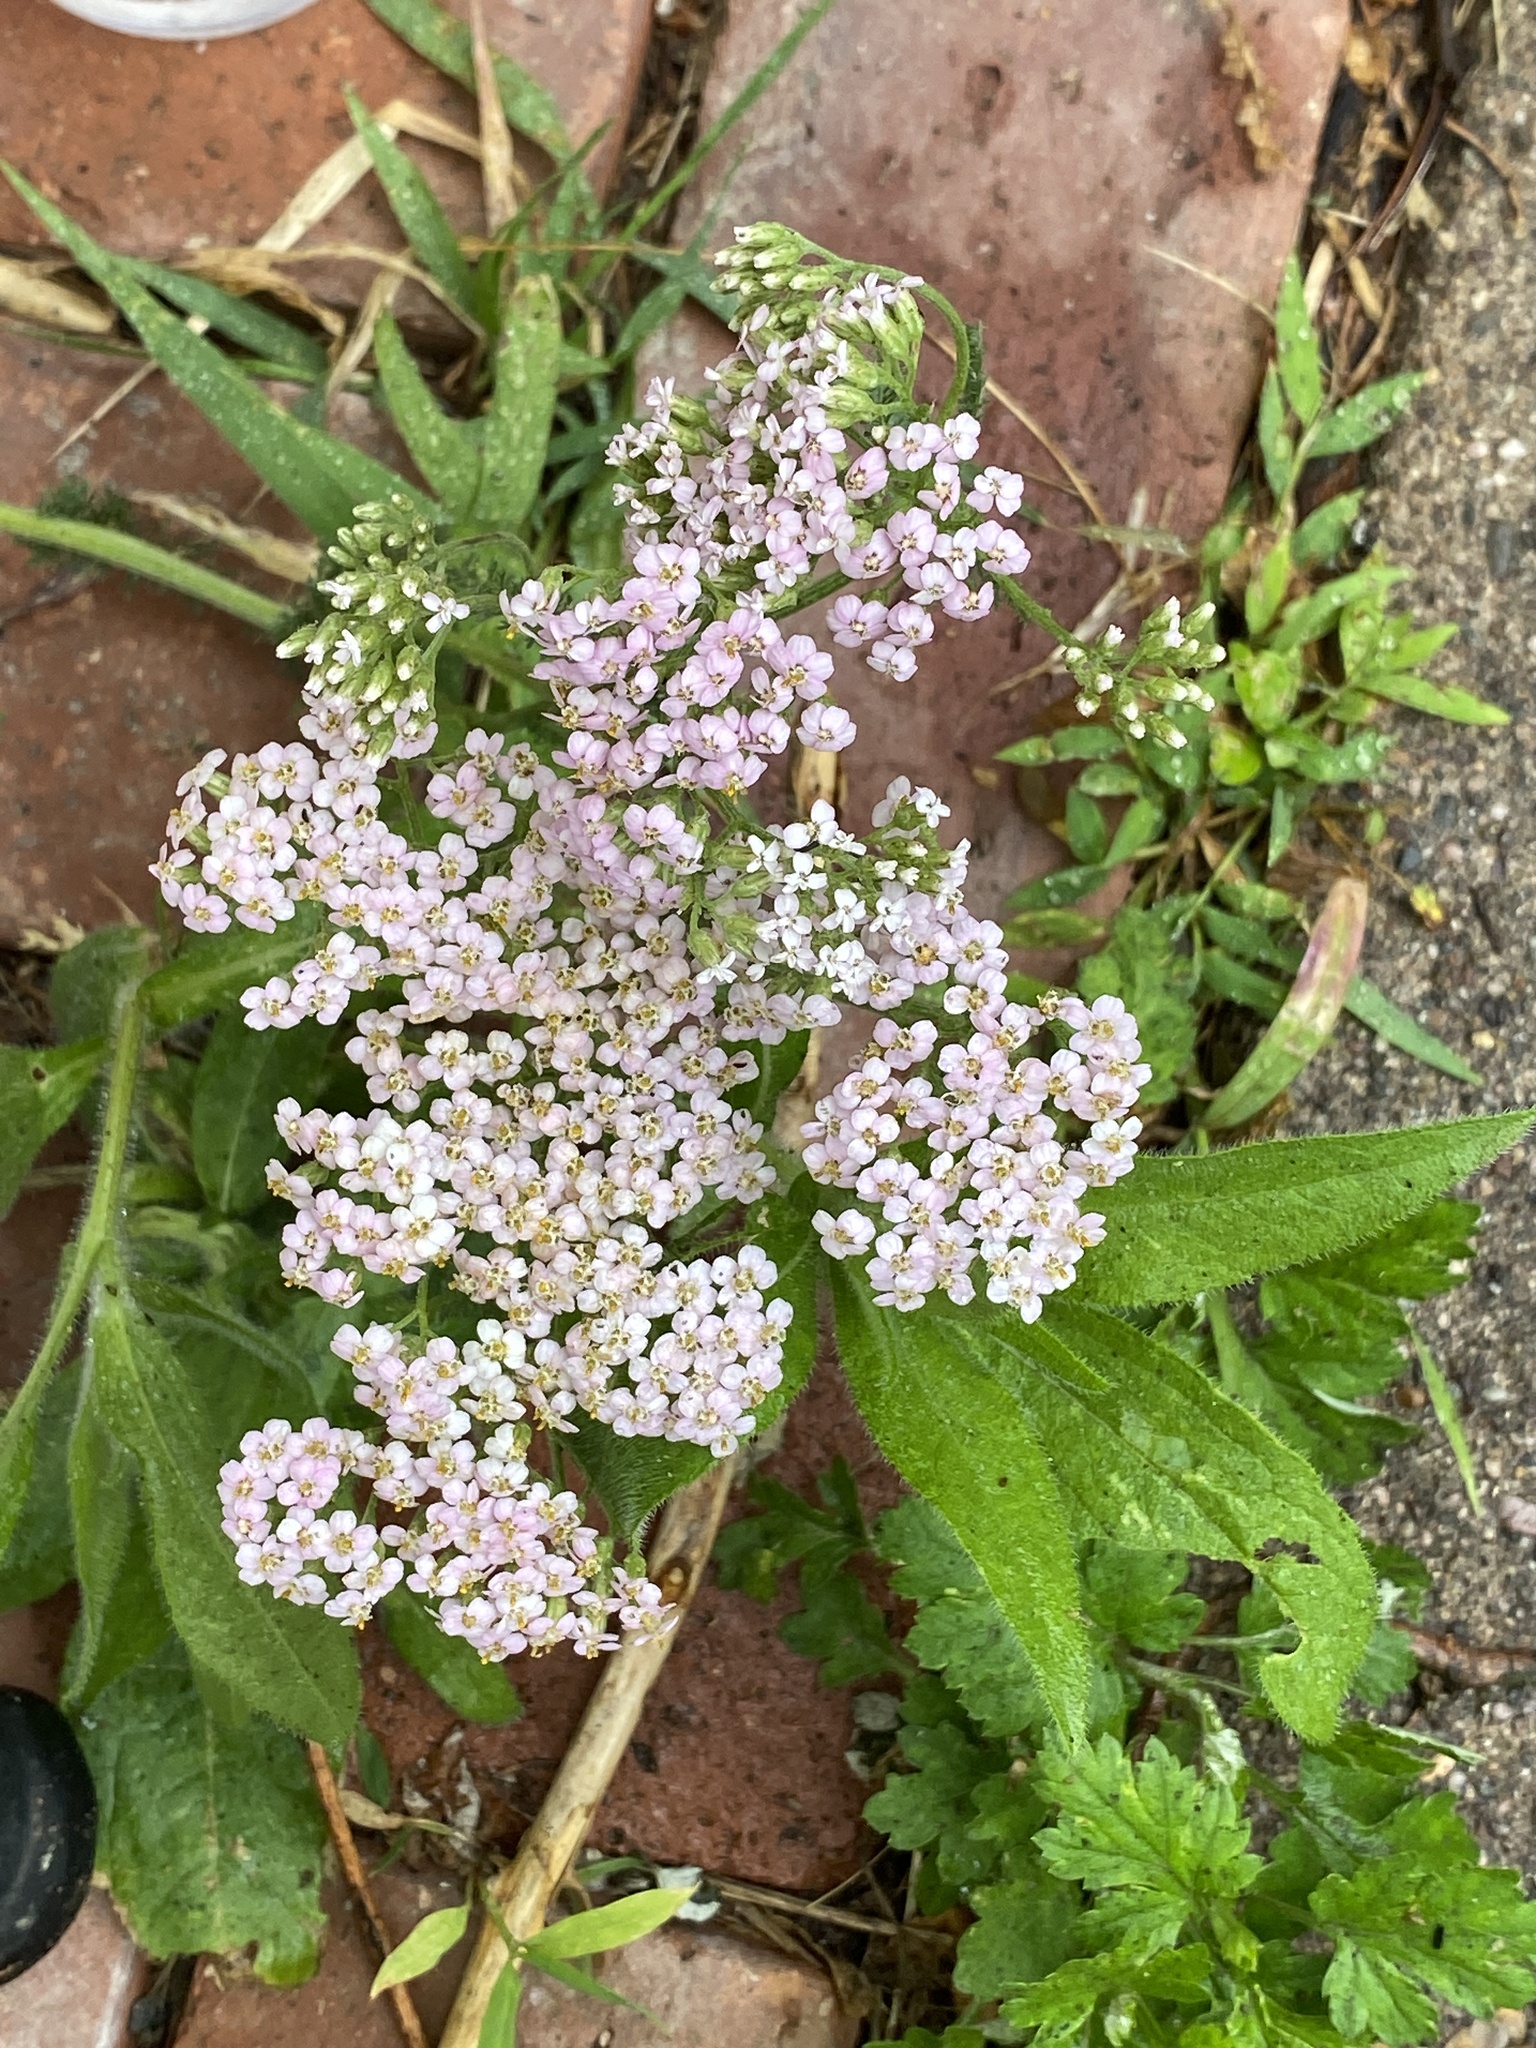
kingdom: Plantae
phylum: Tracheophyta
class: Magnoliopsida
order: Asterales
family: Asteraceae
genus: Achillea
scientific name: Achillea millefolium
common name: Yarrow
